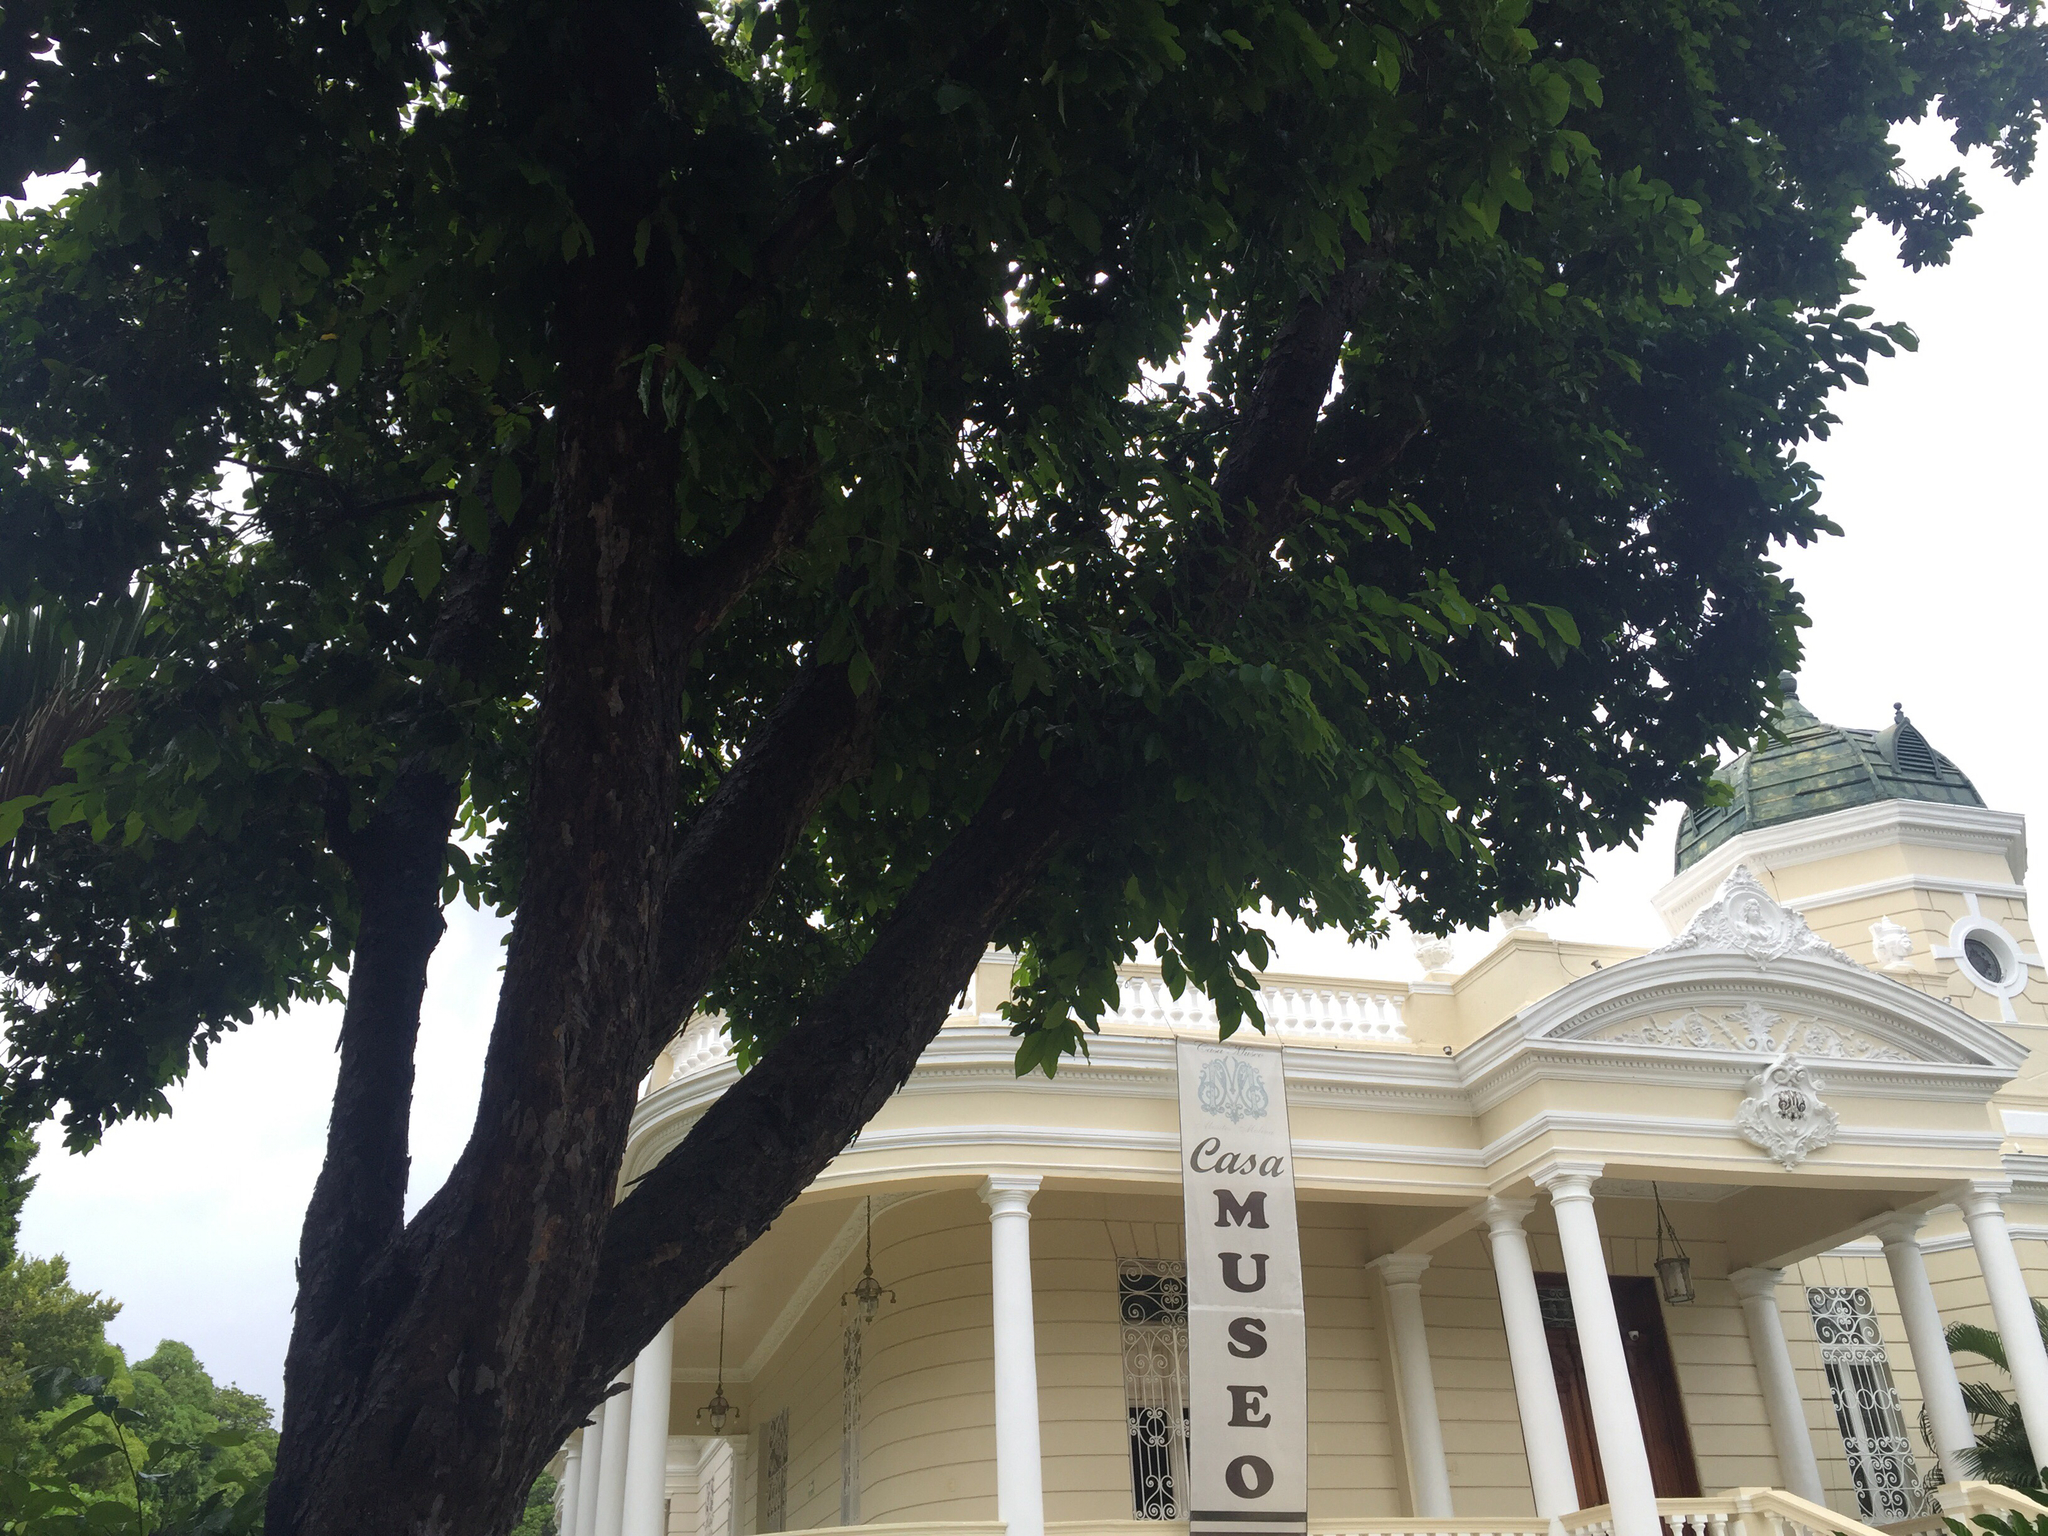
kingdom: Plantae
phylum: Tracheophyta
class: Magnoliopsida
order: Rosales
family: Moraceae
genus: Brosimum
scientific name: Brosimum alicastrum
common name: Breadnut
